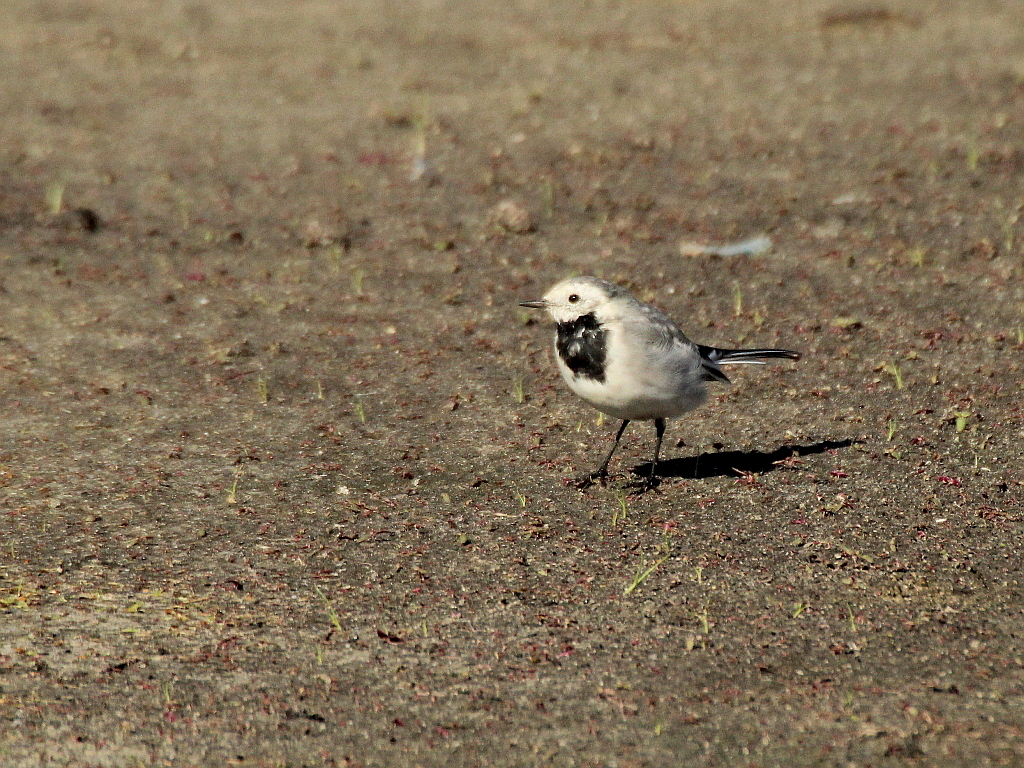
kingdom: Animalia
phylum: Chordata
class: Aves
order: Passeriformes
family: Motacillidae
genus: Motacilla
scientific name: Motacilla alba
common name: White wagtail
